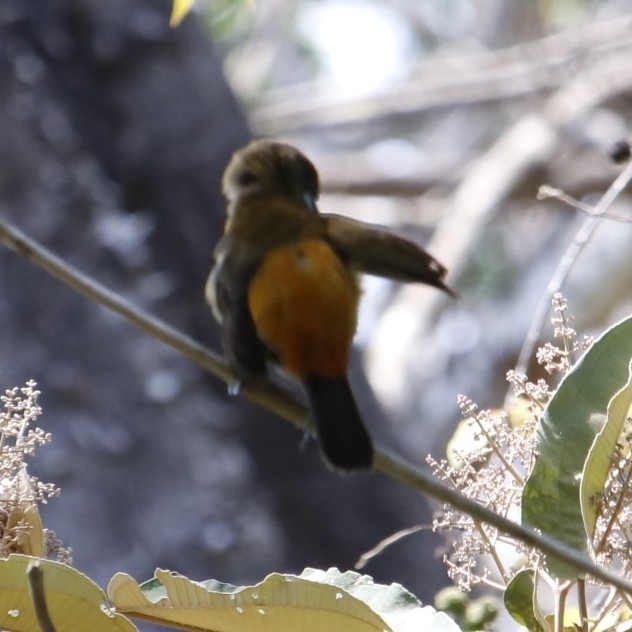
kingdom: Animalia
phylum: Chordata
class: Aves
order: Passeriformes
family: Thraupidae
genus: Ramphocelus
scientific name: Ramphocelus passerinii
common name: Passerini's tanager
